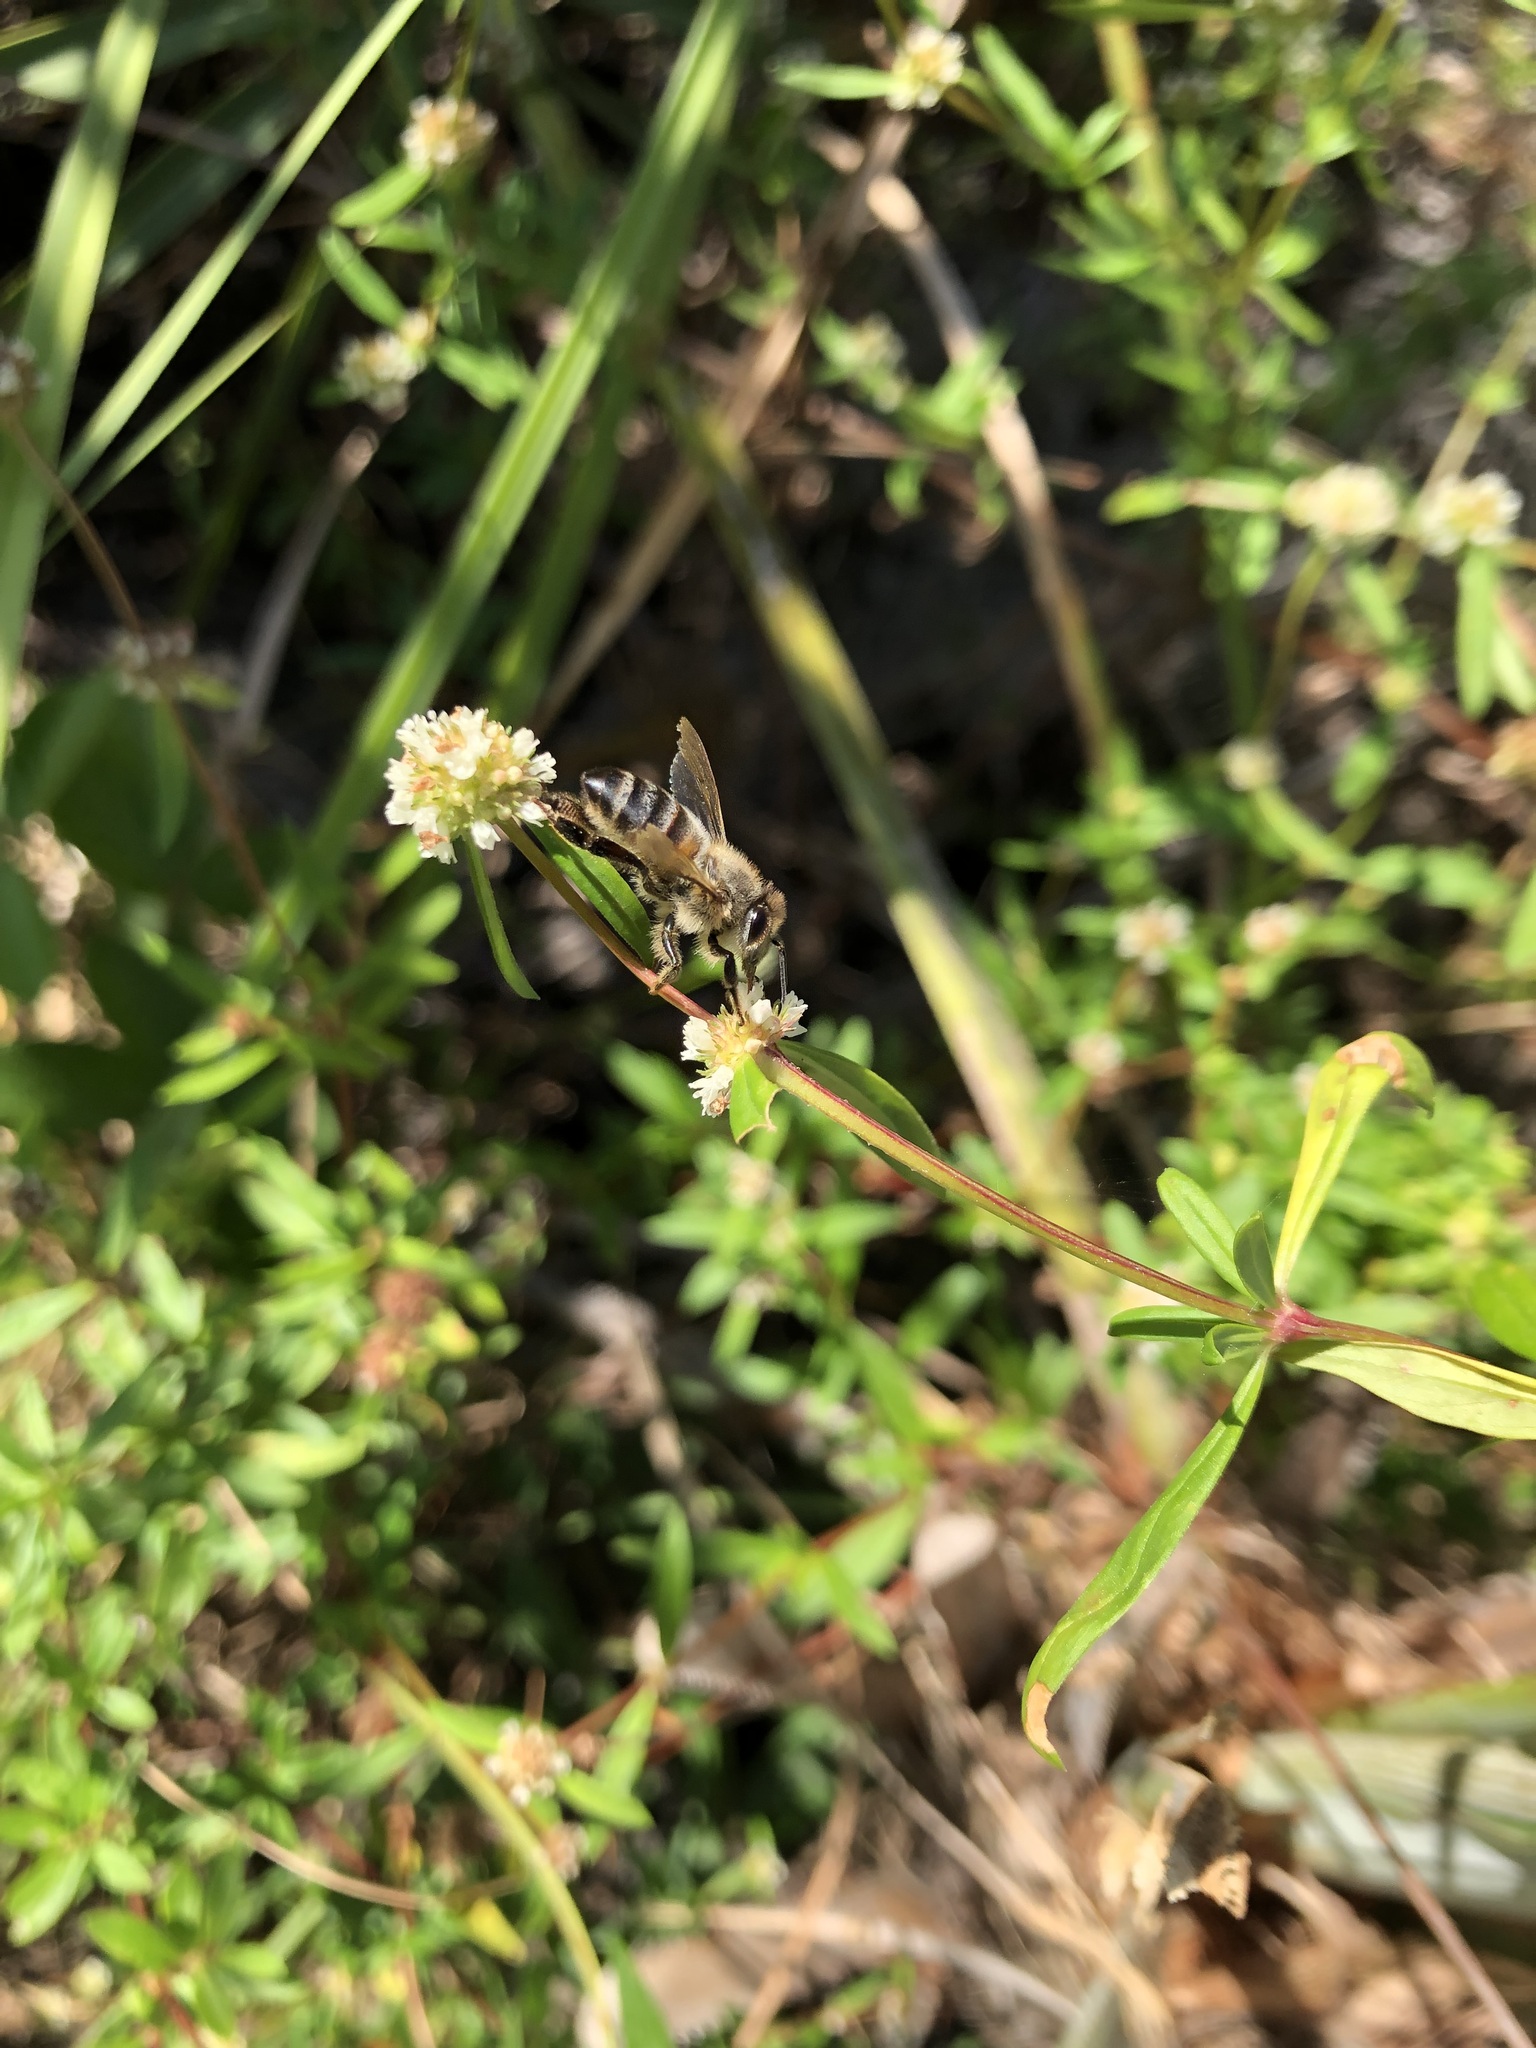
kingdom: Animalia
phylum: Arthropoda
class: Insecta
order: Hymenoptera
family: Apidae
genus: Apis
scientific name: Apis mellifera
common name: Honey bee
